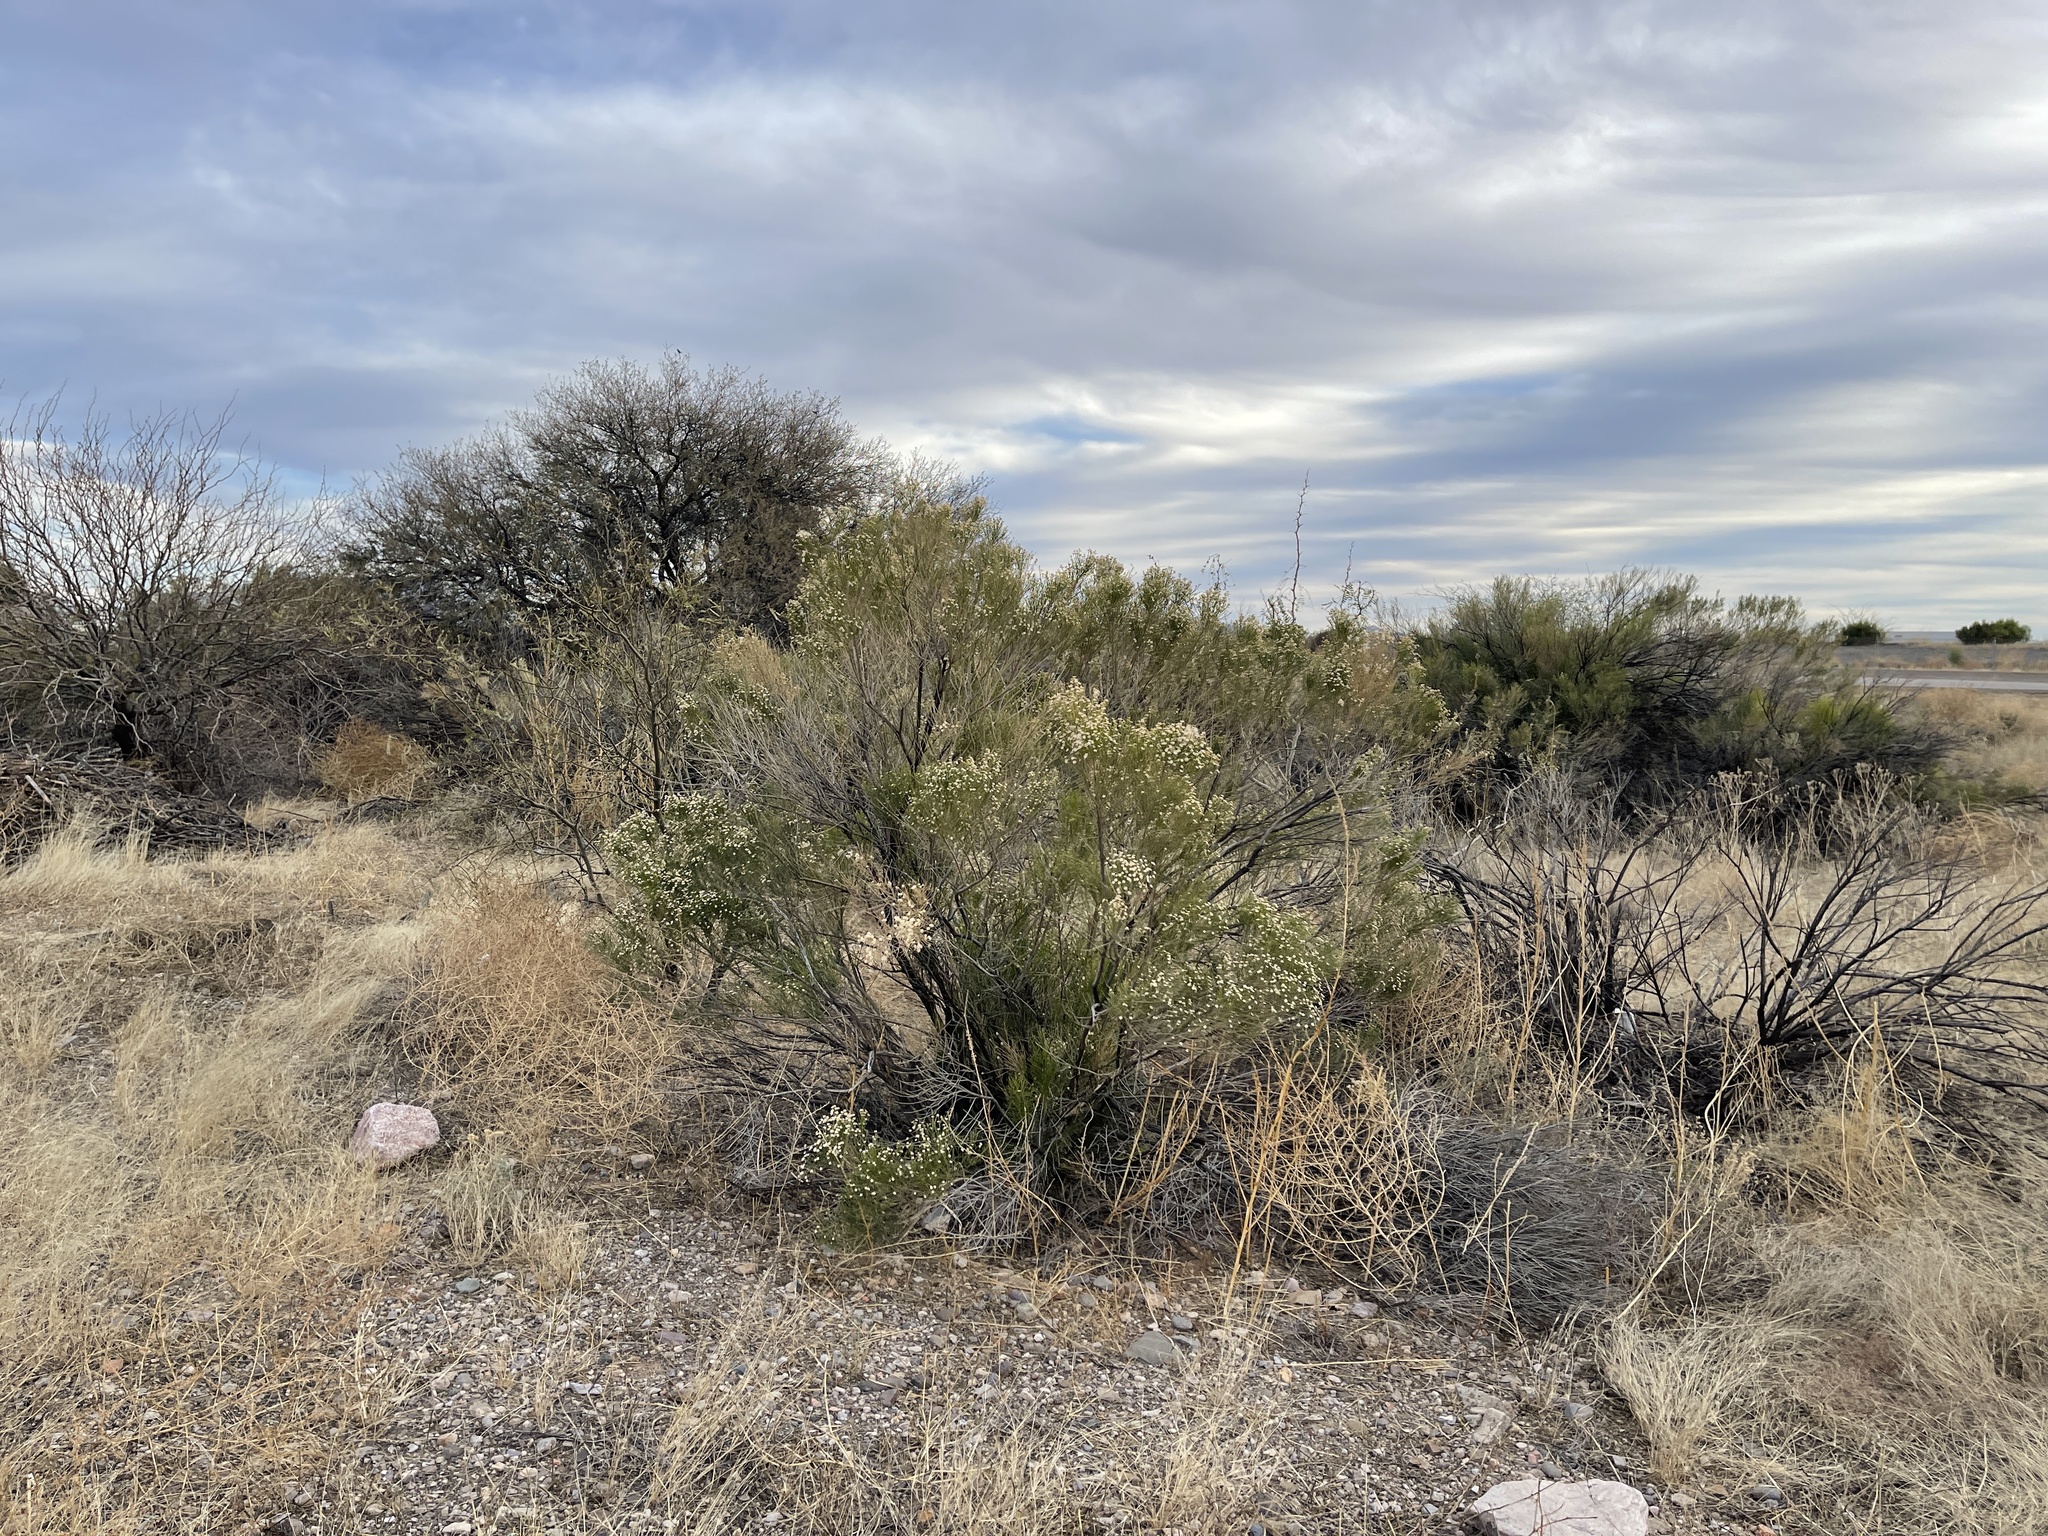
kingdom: Plantae
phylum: Tracheophyta
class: Magnoliopsida
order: Asterales
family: Asteraceae
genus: Baccharis
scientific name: Baccharis sarothroides
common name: Desert-broom
